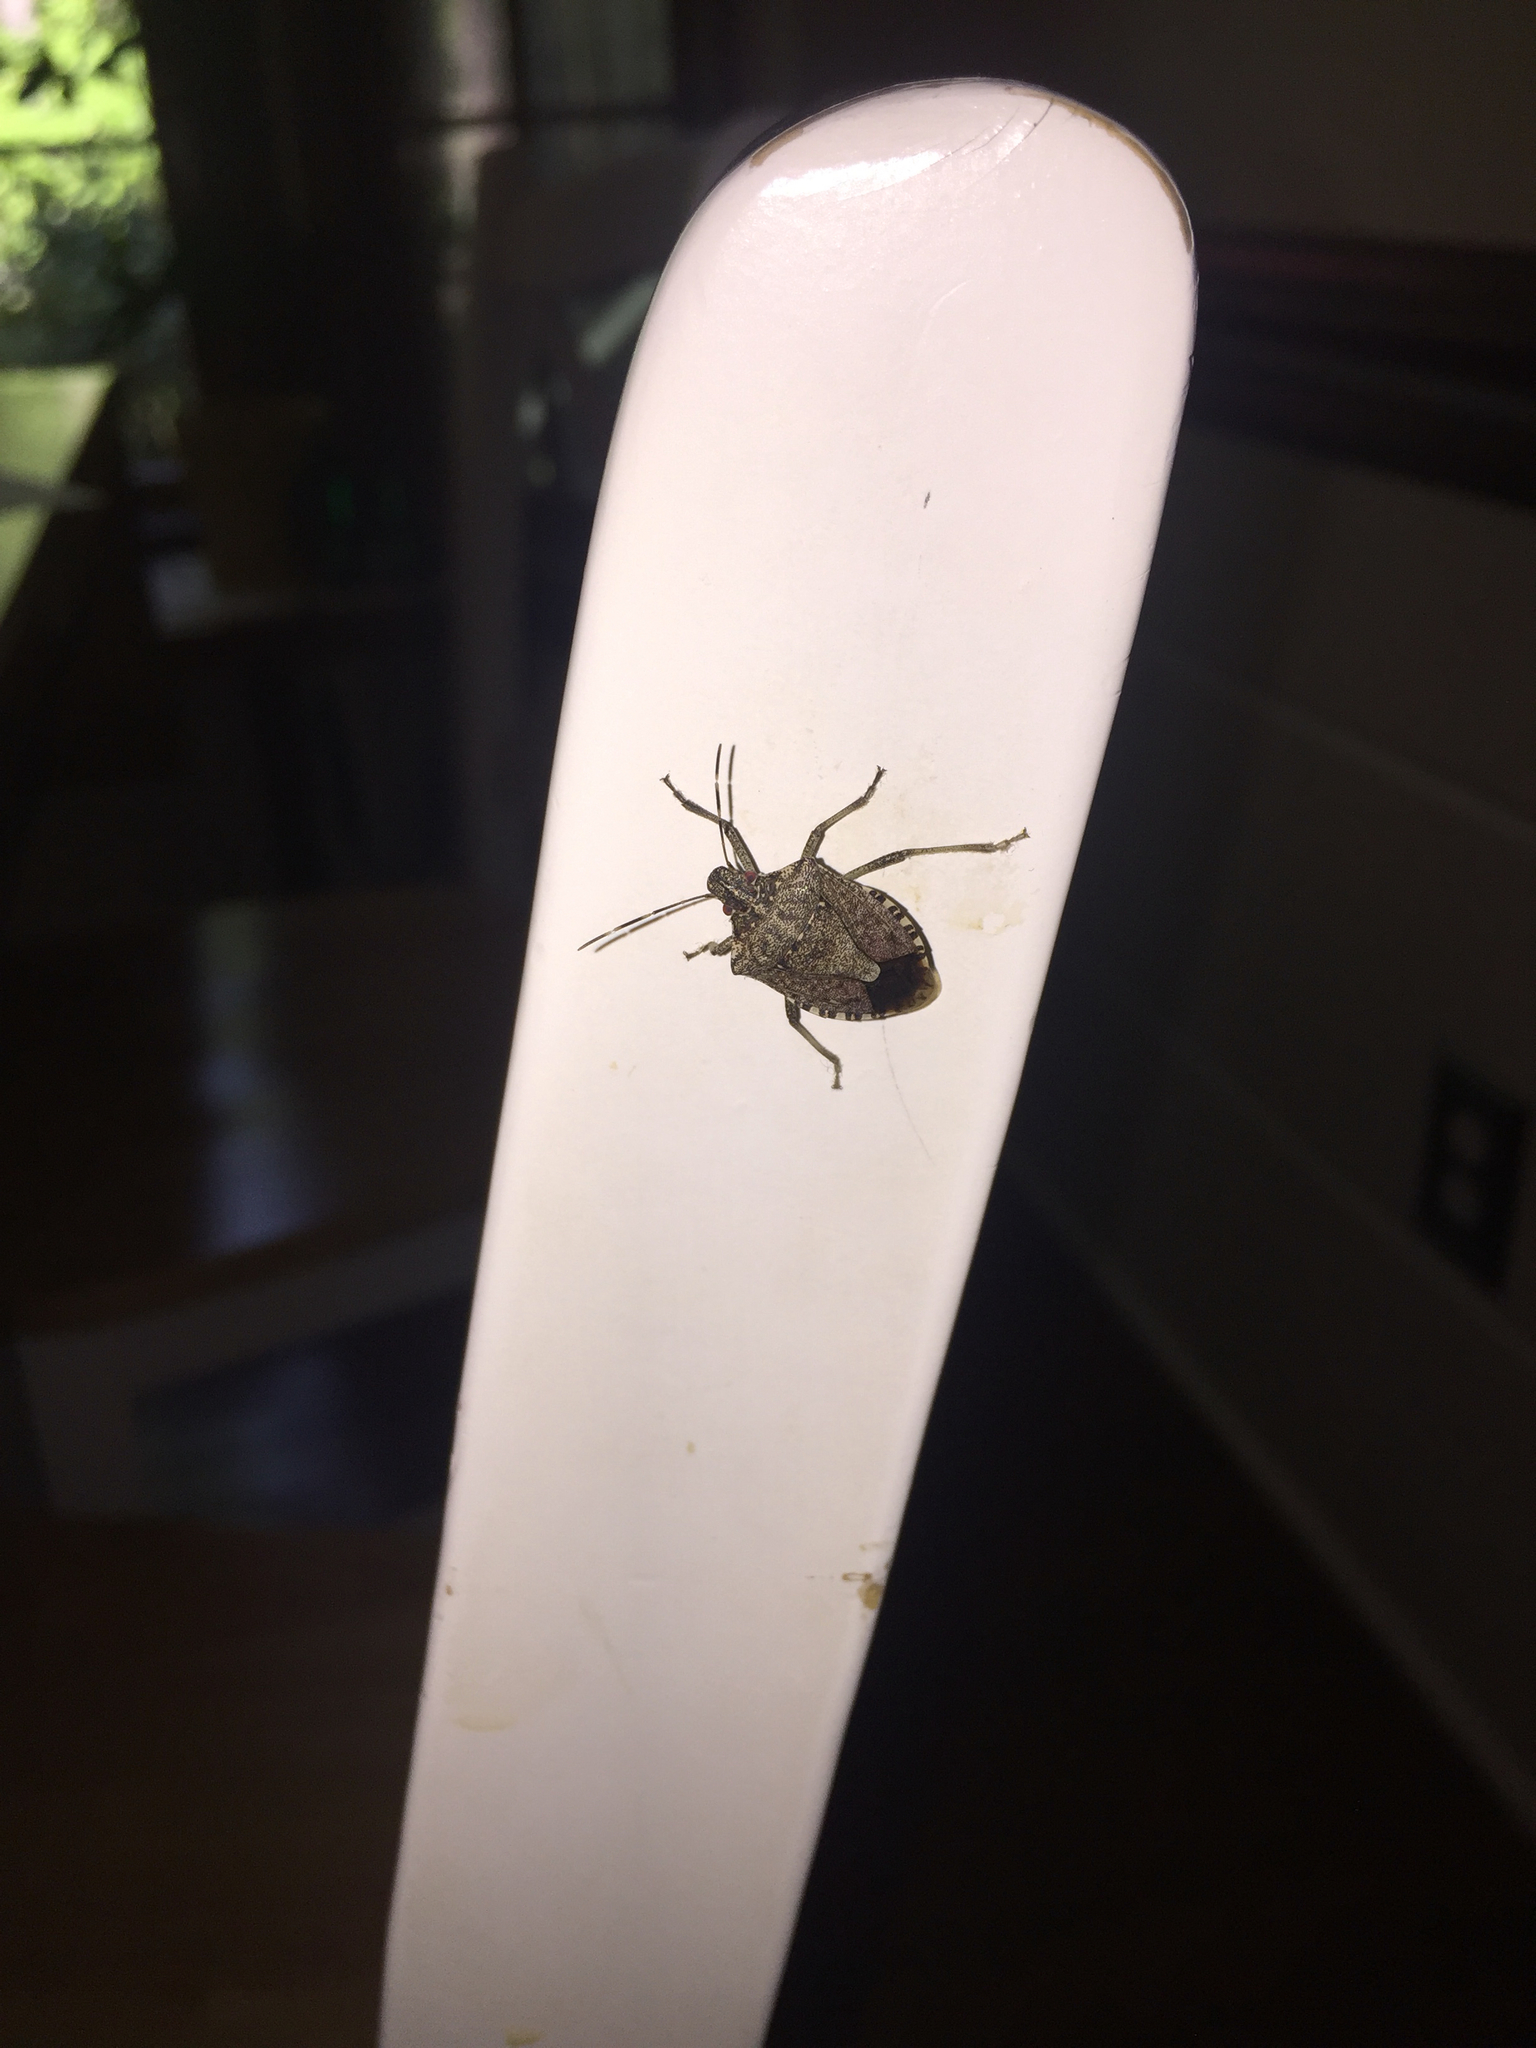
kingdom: Animalia
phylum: Arthropoda
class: Insecta
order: Hemiptera
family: Pentatomidae
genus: Halyomorpha
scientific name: Halyomorpha halys
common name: Brown marmorated stink bug
